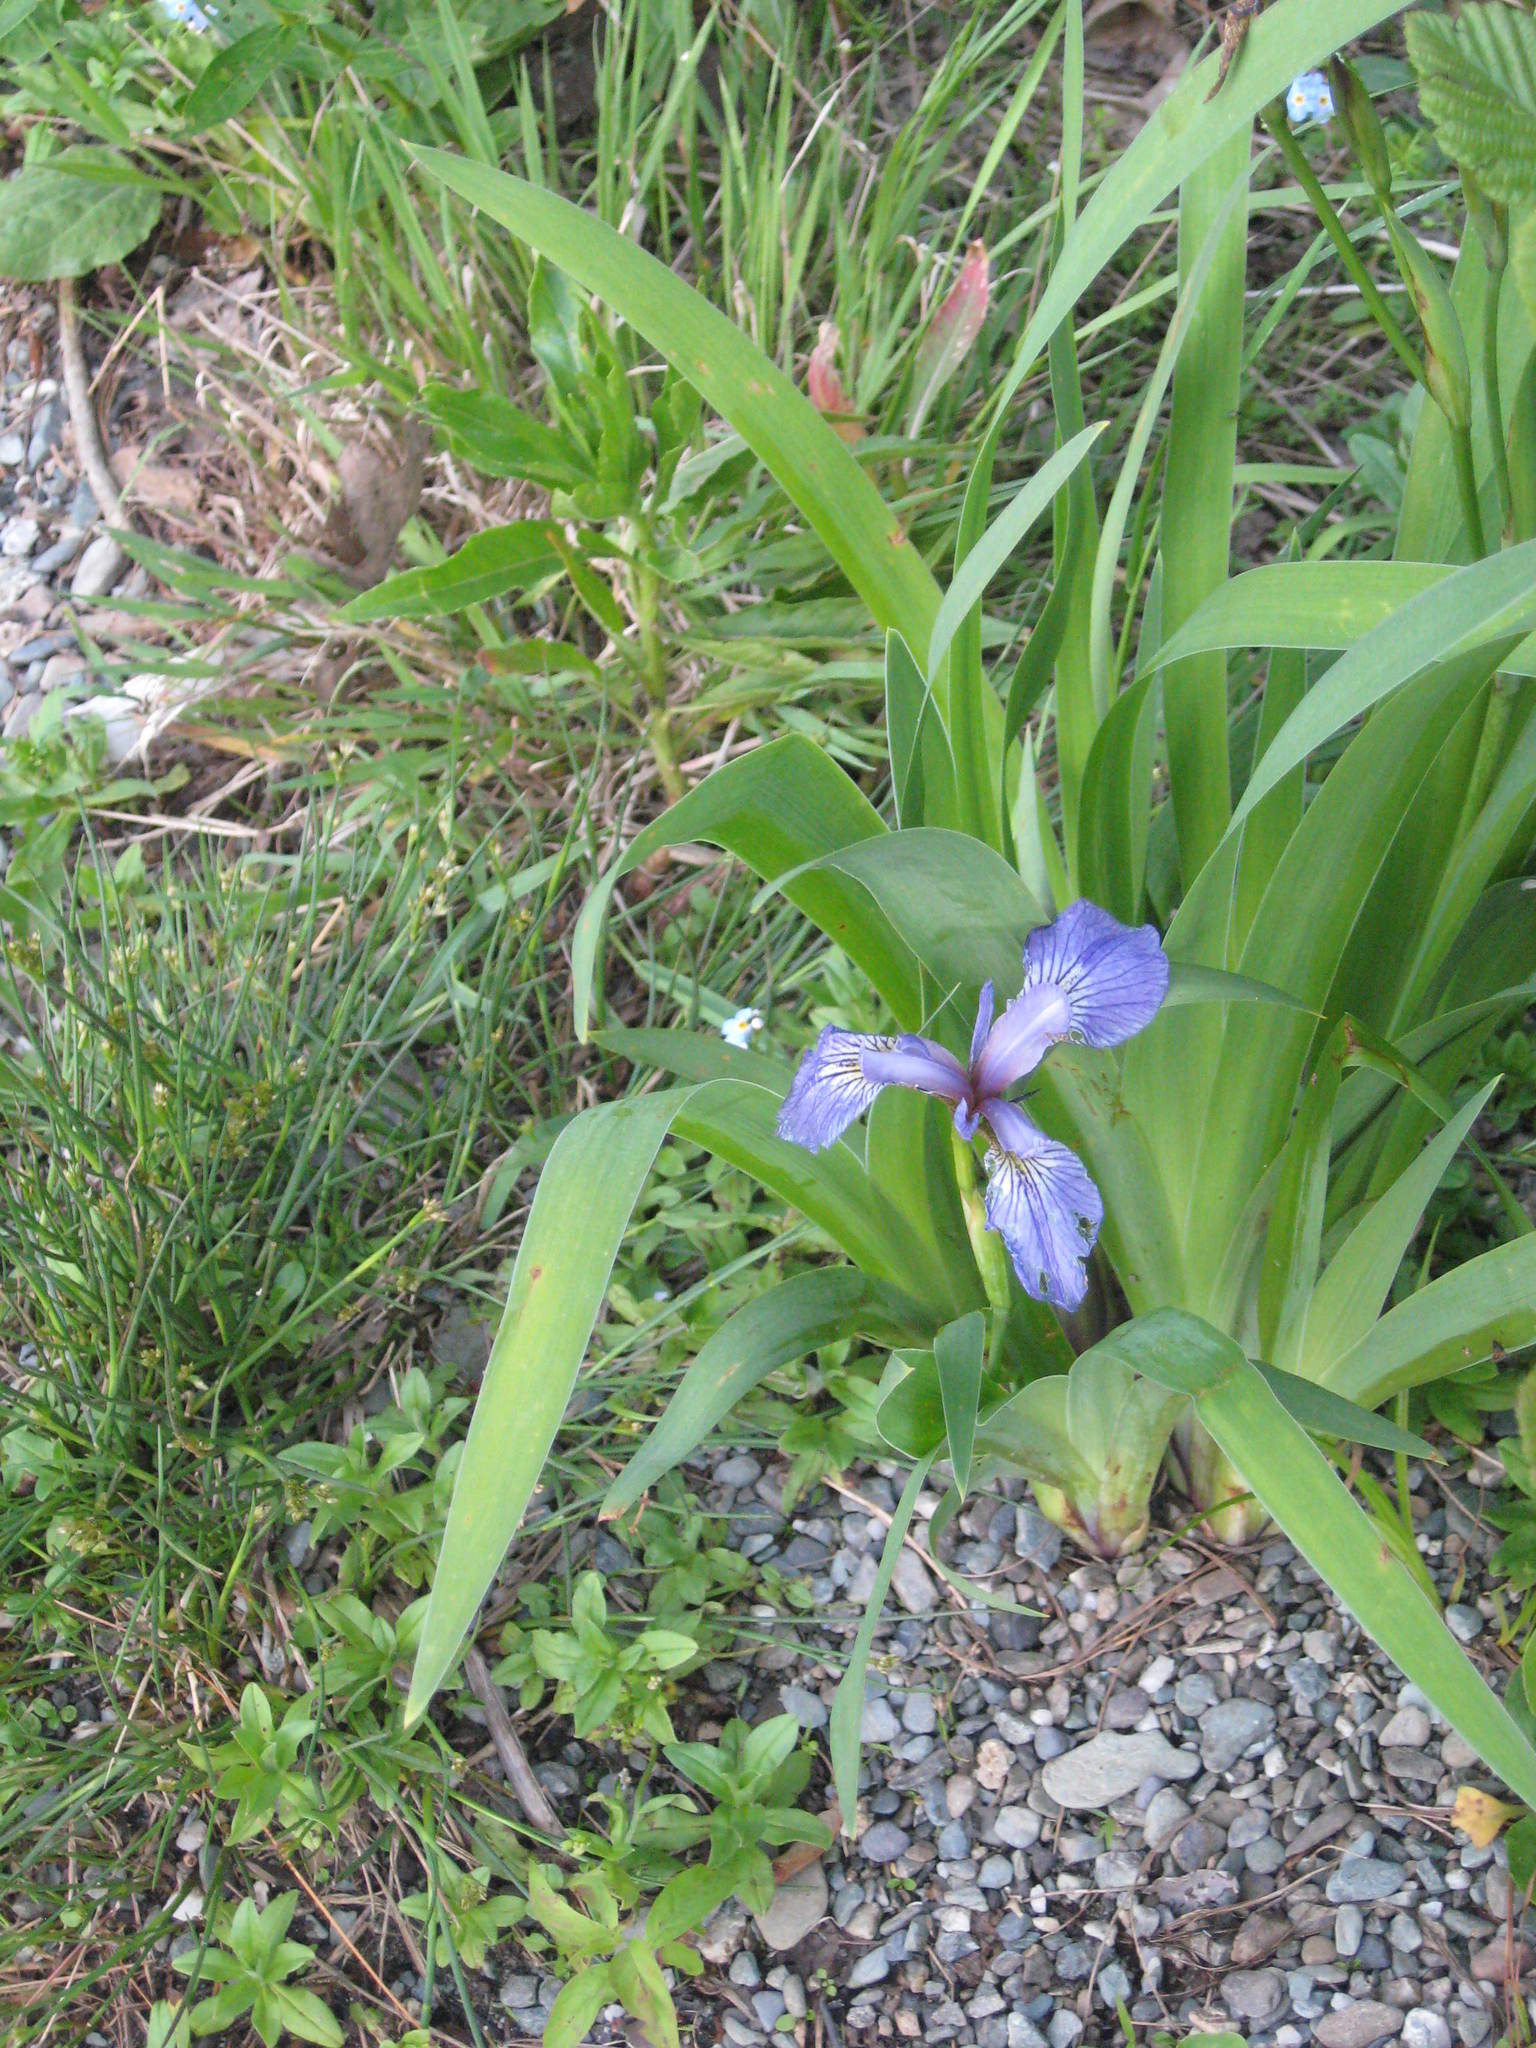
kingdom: Plantae
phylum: Tracheophyta
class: Liliopsida
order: Asparagales
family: Iridaceae
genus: Iris
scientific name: Iris versicolor
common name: Purple iris
